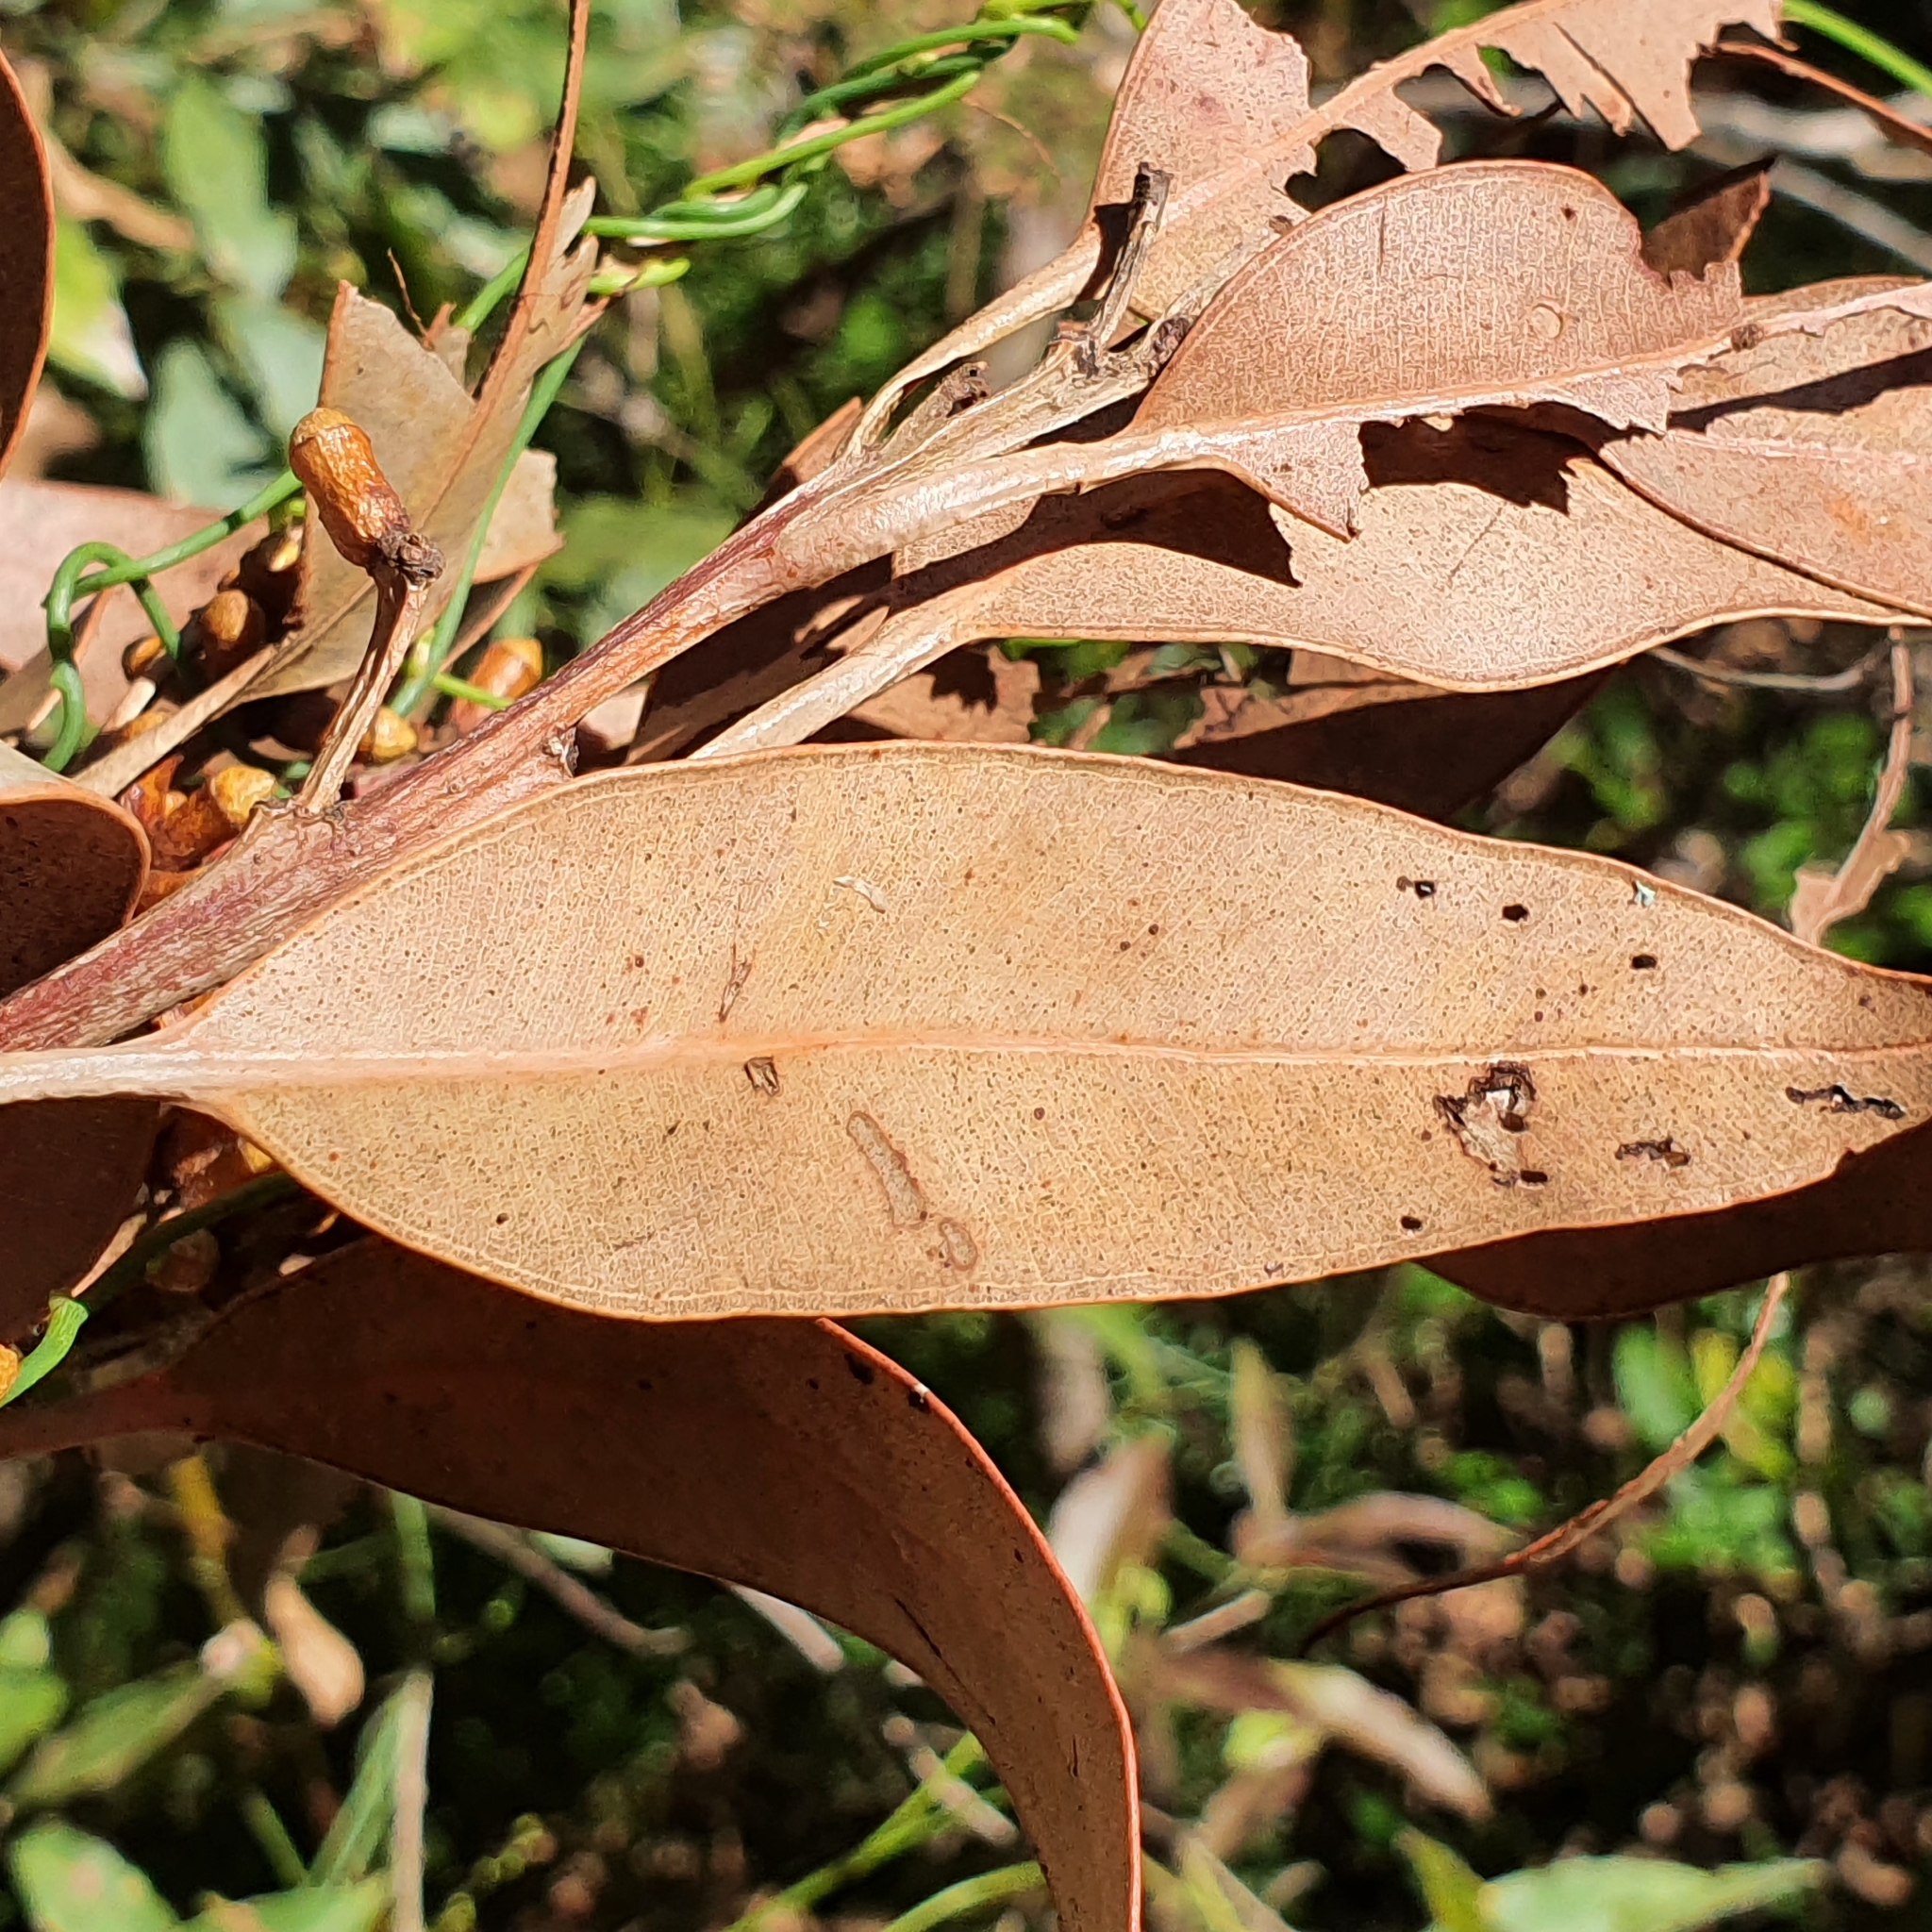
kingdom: Plantae
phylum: Tracheophyta
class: Magnoliopsida
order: Myrtales
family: Myrtaceae
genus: Eucalyptus
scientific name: Eucalyptus botryoides
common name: Bangalay
